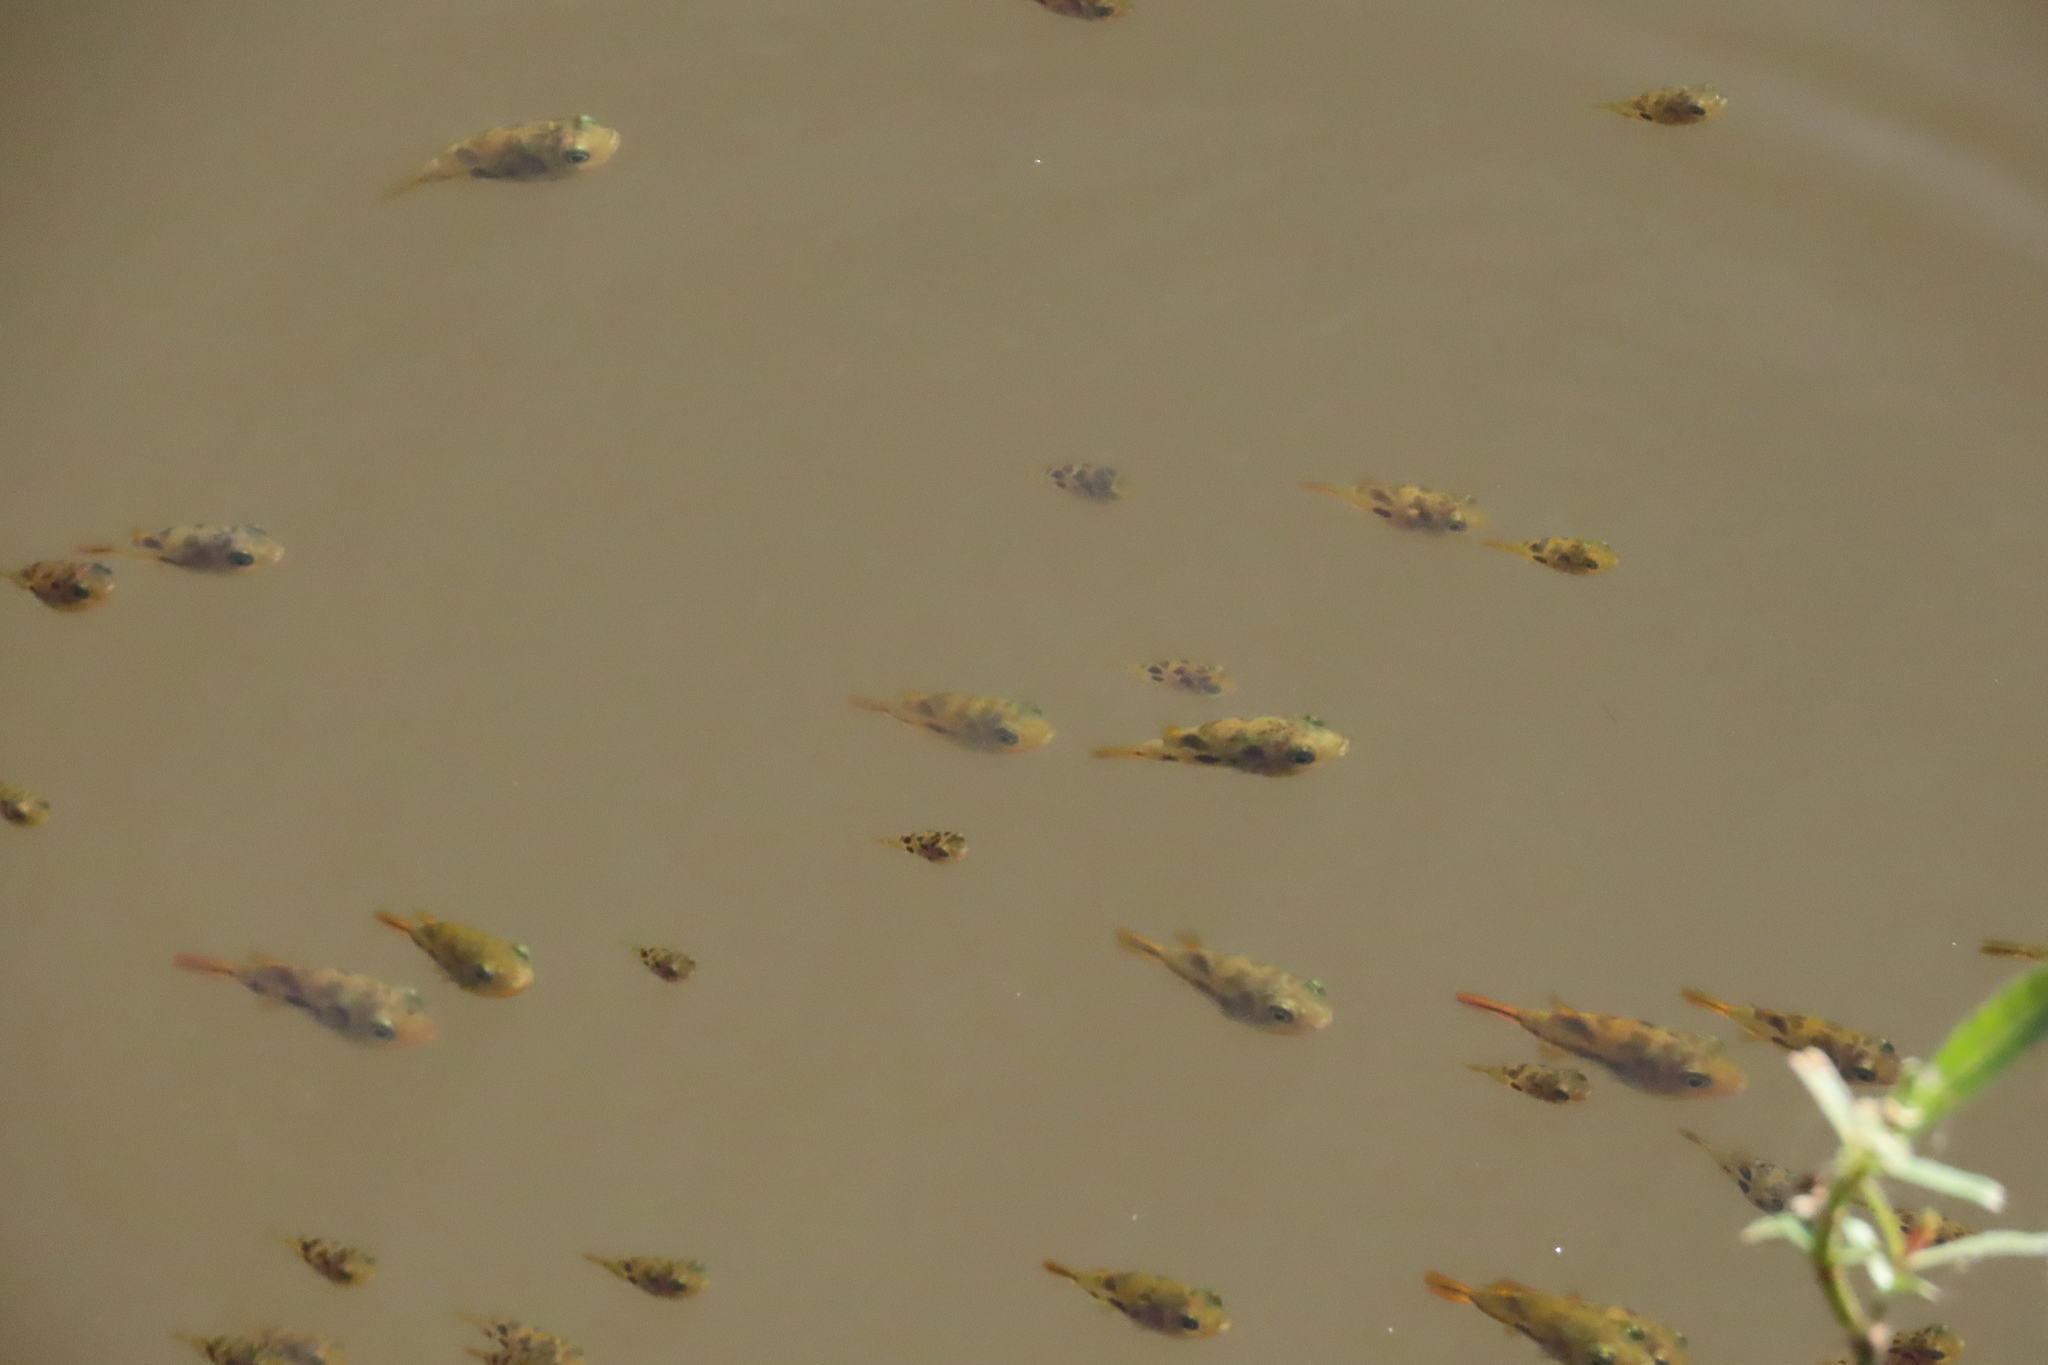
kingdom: Animalia
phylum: Chordata
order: Tetraodontiformes
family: Tetraodontidae
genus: Carinotetraodon
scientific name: Carinotetraodon travancoricus
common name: Dwarf indian puffer
